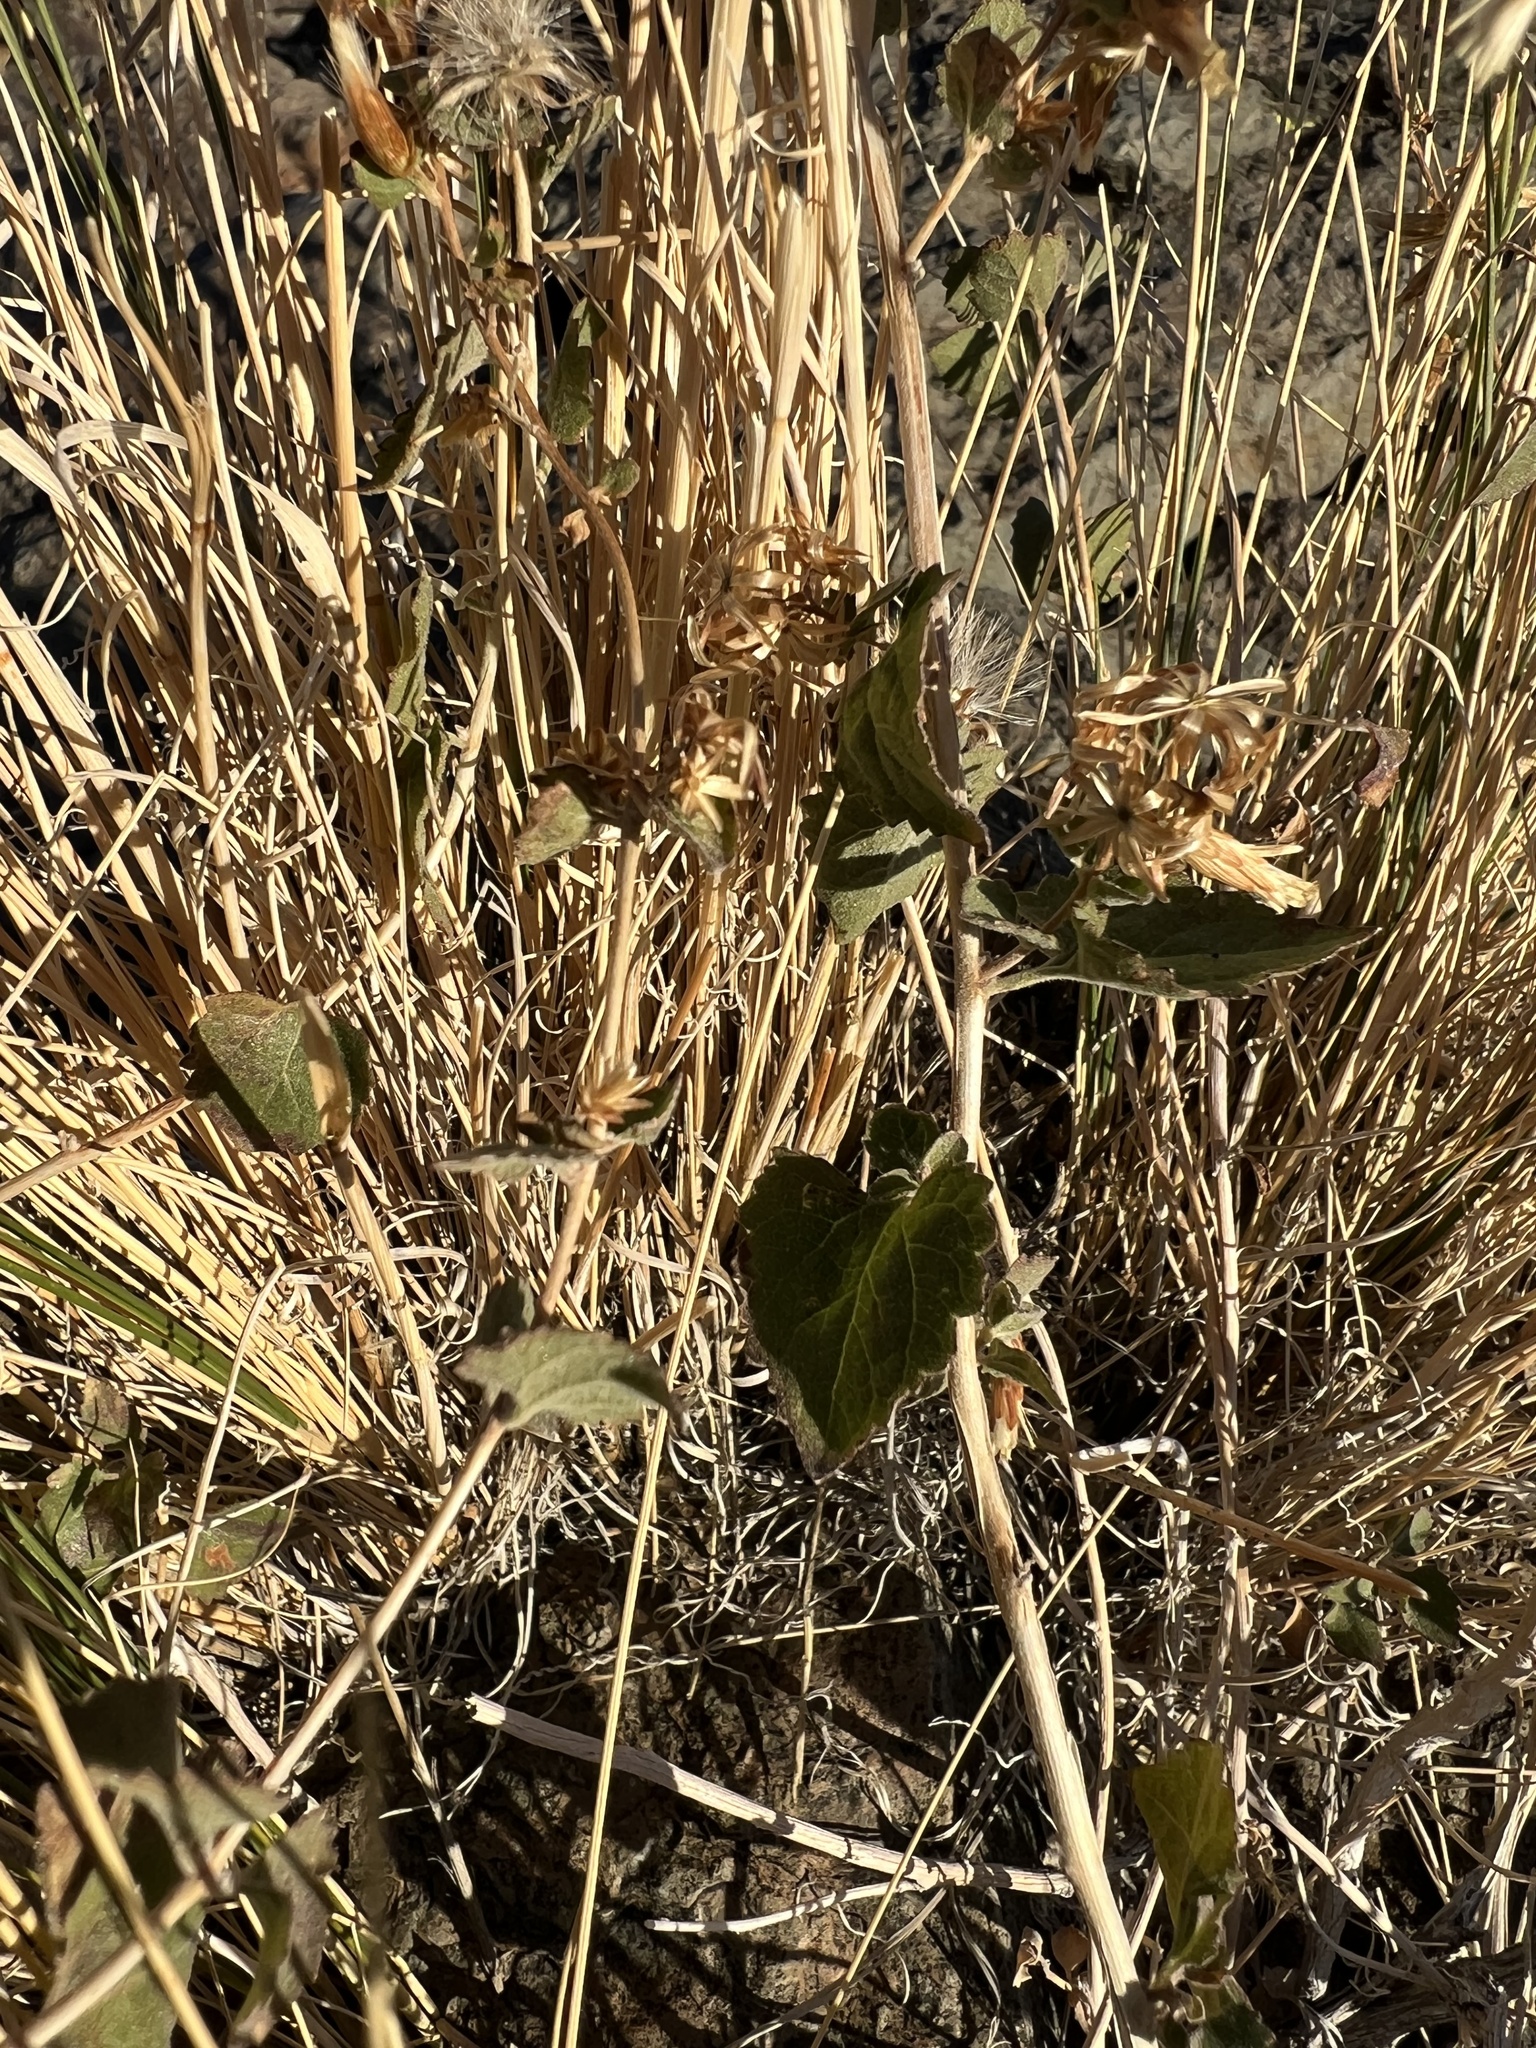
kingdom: Plantae
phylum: Tracheophyta
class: Magnoliopsida
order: Asterales
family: Asteraceae
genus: Brickellia
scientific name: Brickellia californica
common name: California brickellbush
